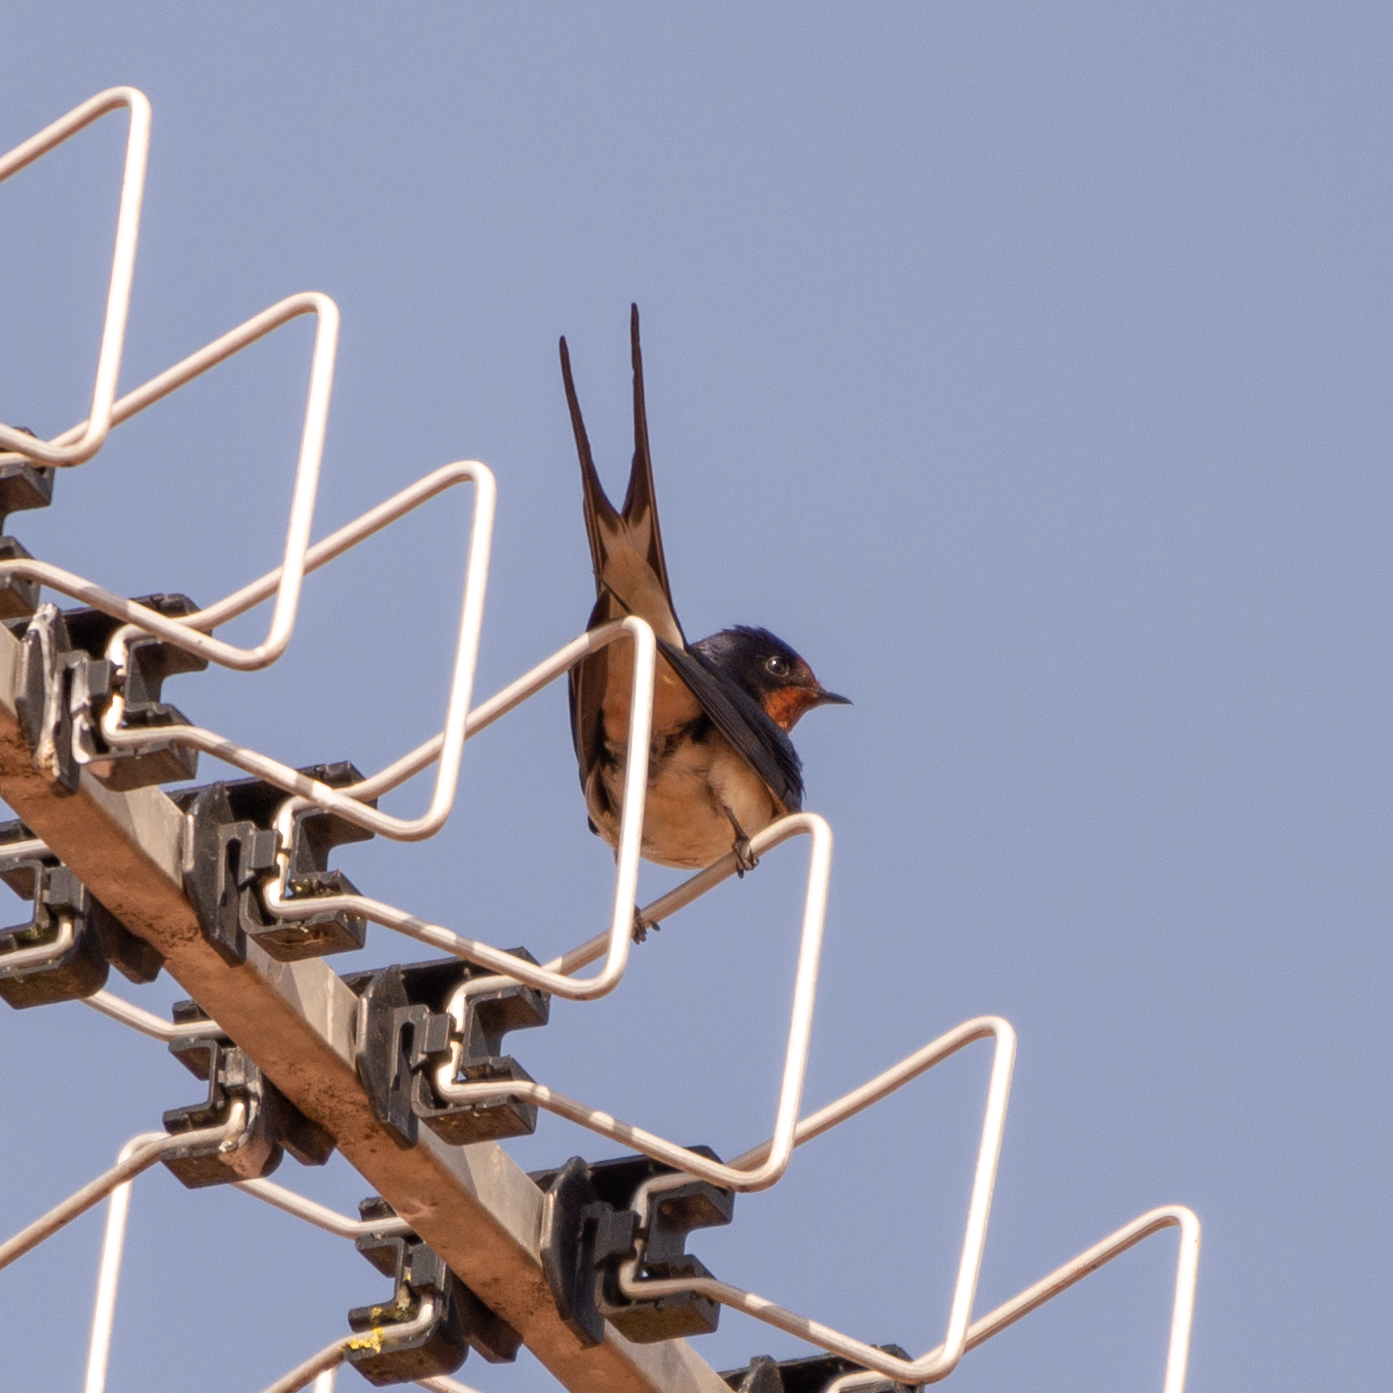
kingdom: Animalia
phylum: Chordata
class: Aves
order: Passeriformes
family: Hirundinidae
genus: Hirundo
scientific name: Hirundo rustica
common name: Barn swallow
